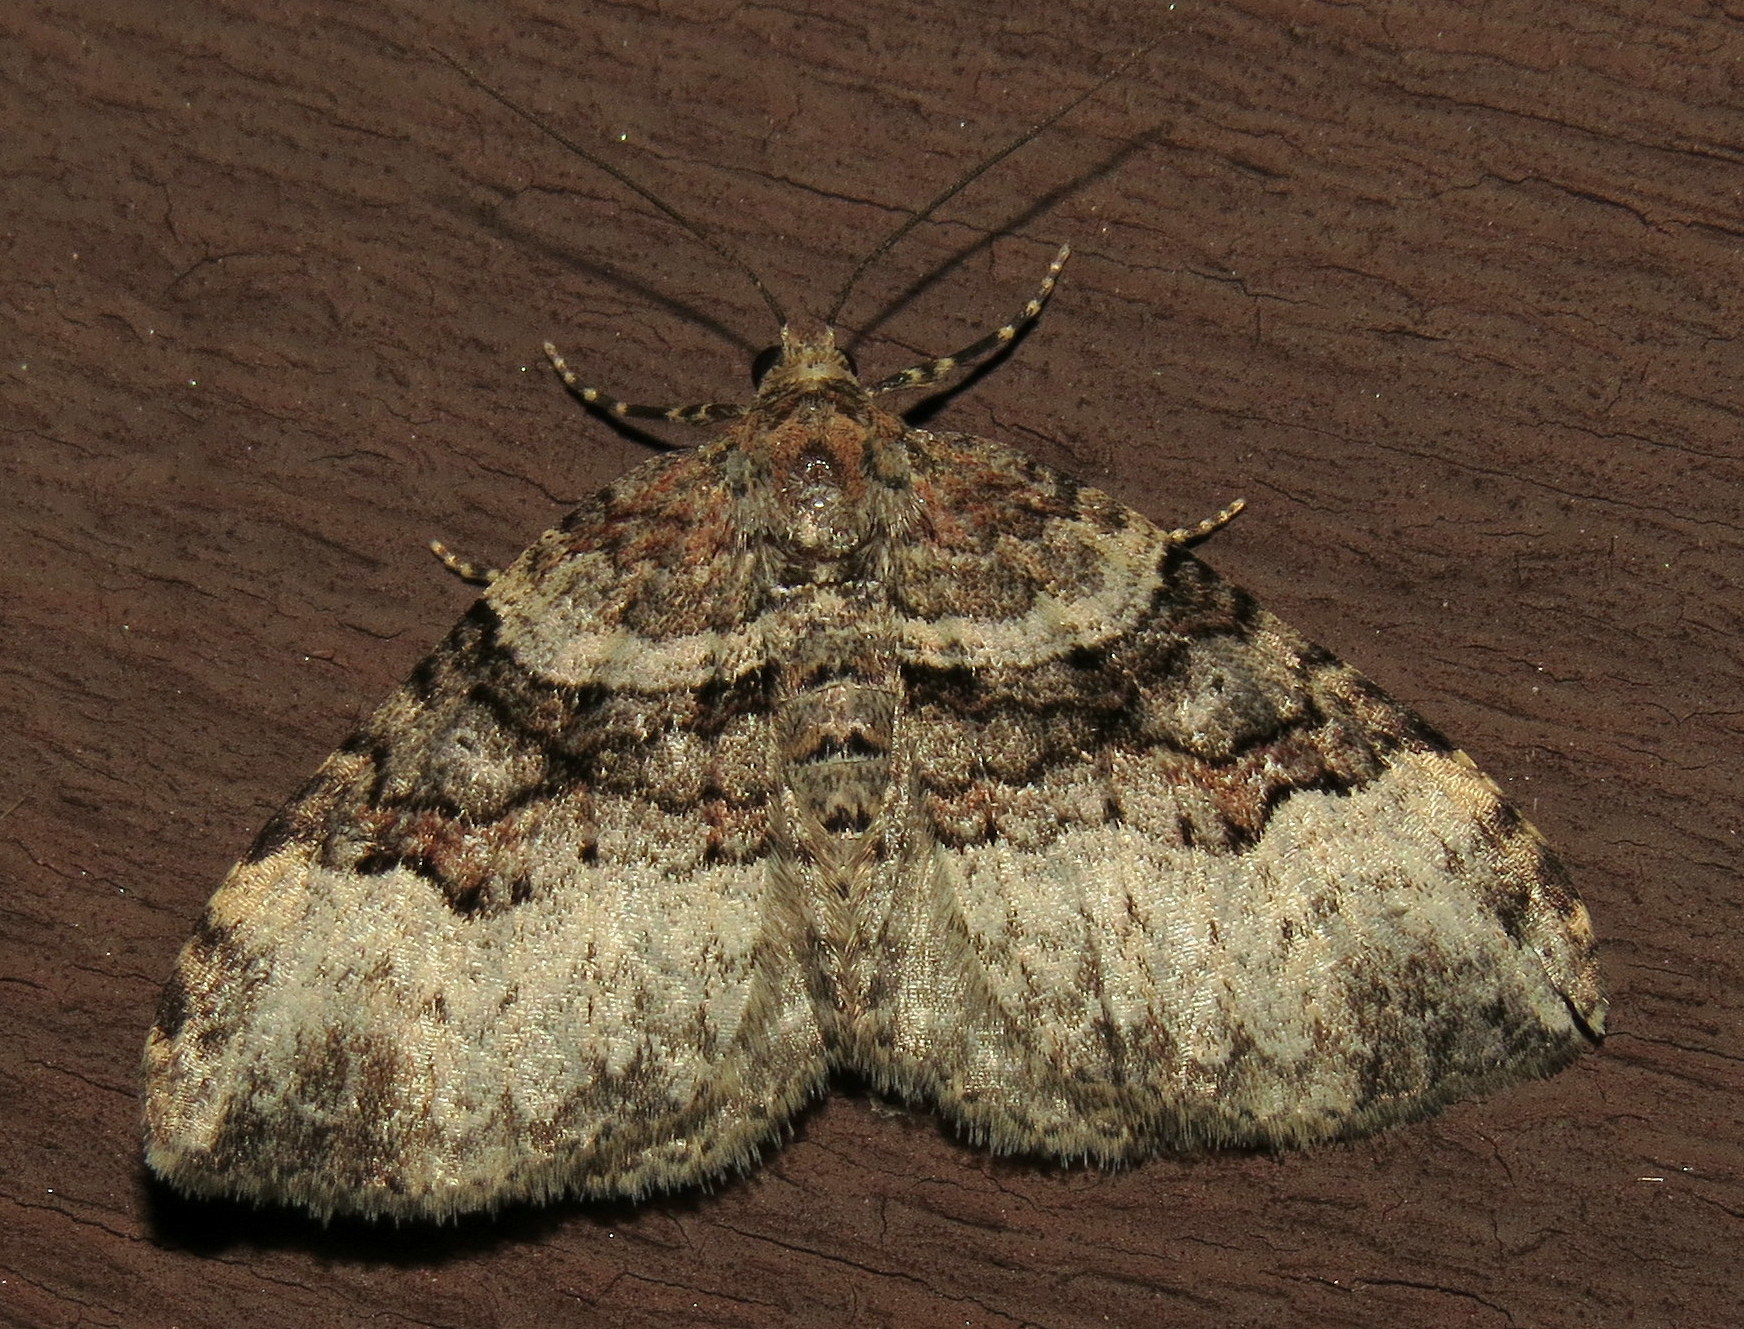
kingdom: Animalia
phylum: Arthropoda
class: Insecta
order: Lepidoptera
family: Geometridae
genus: Xanthorhoe
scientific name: Xanthorhoe lacustrata
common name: Toothed brown carpet
